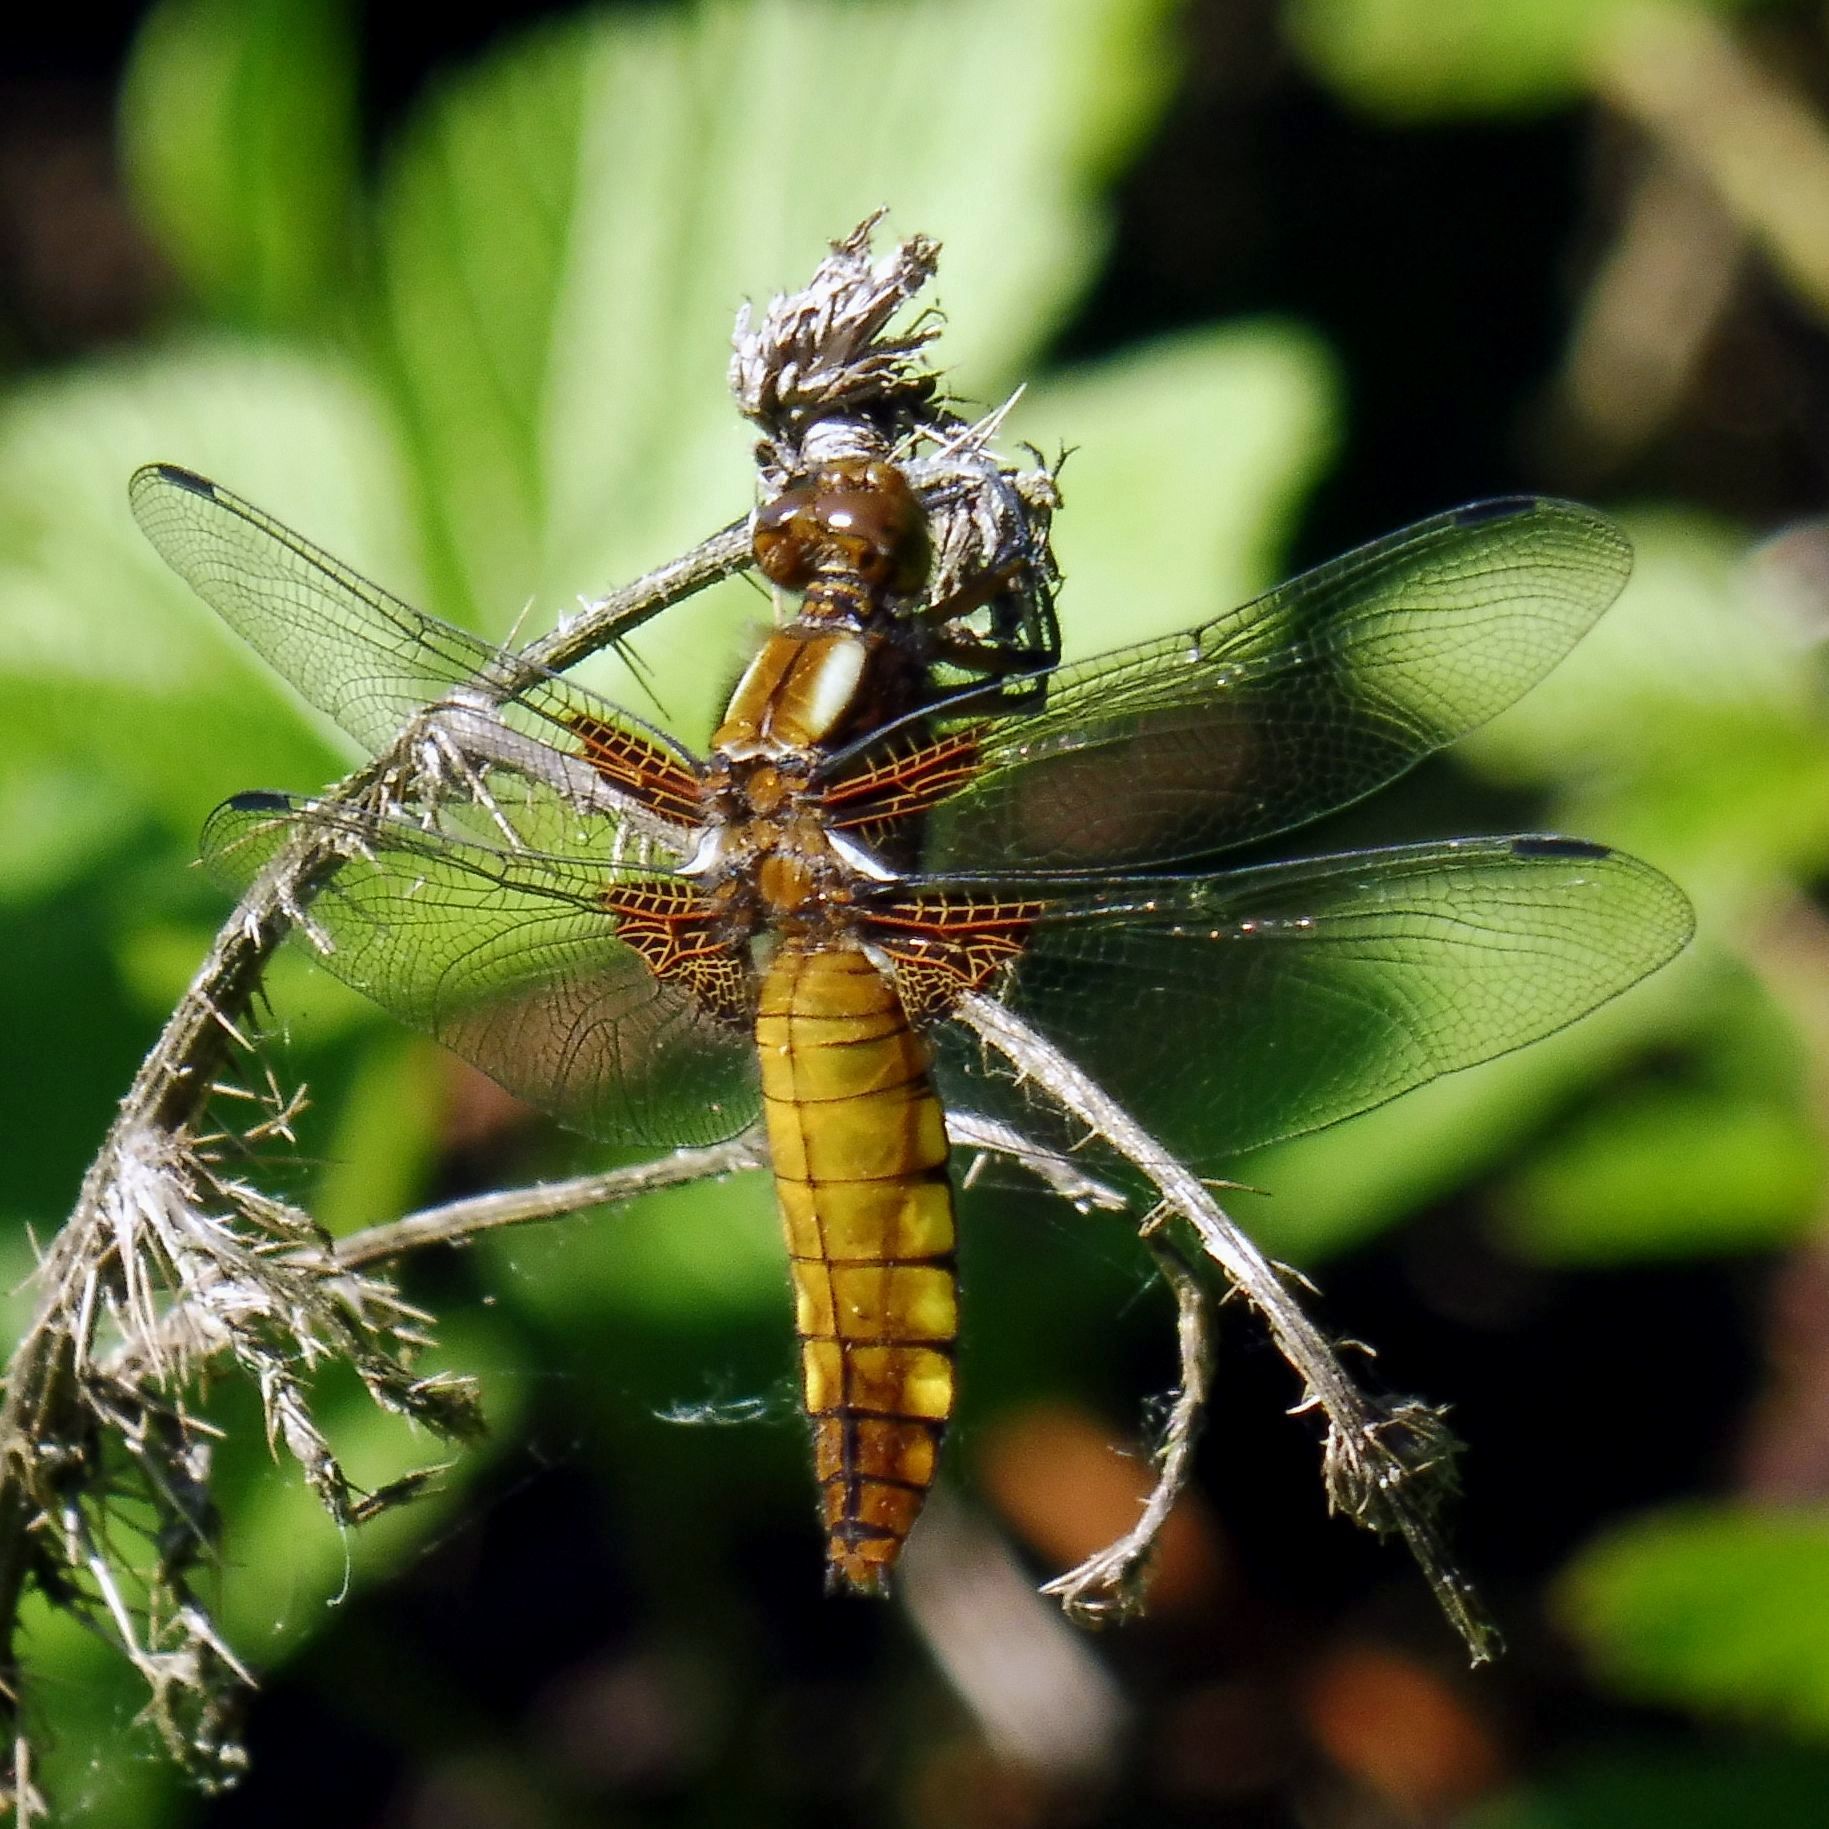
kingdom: Animalia
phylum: Arthropoda
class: Insecta
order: Odonata
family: Libellulidae
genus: Libellula
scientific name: Libellula depressa
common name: Broad-bodied chaser
